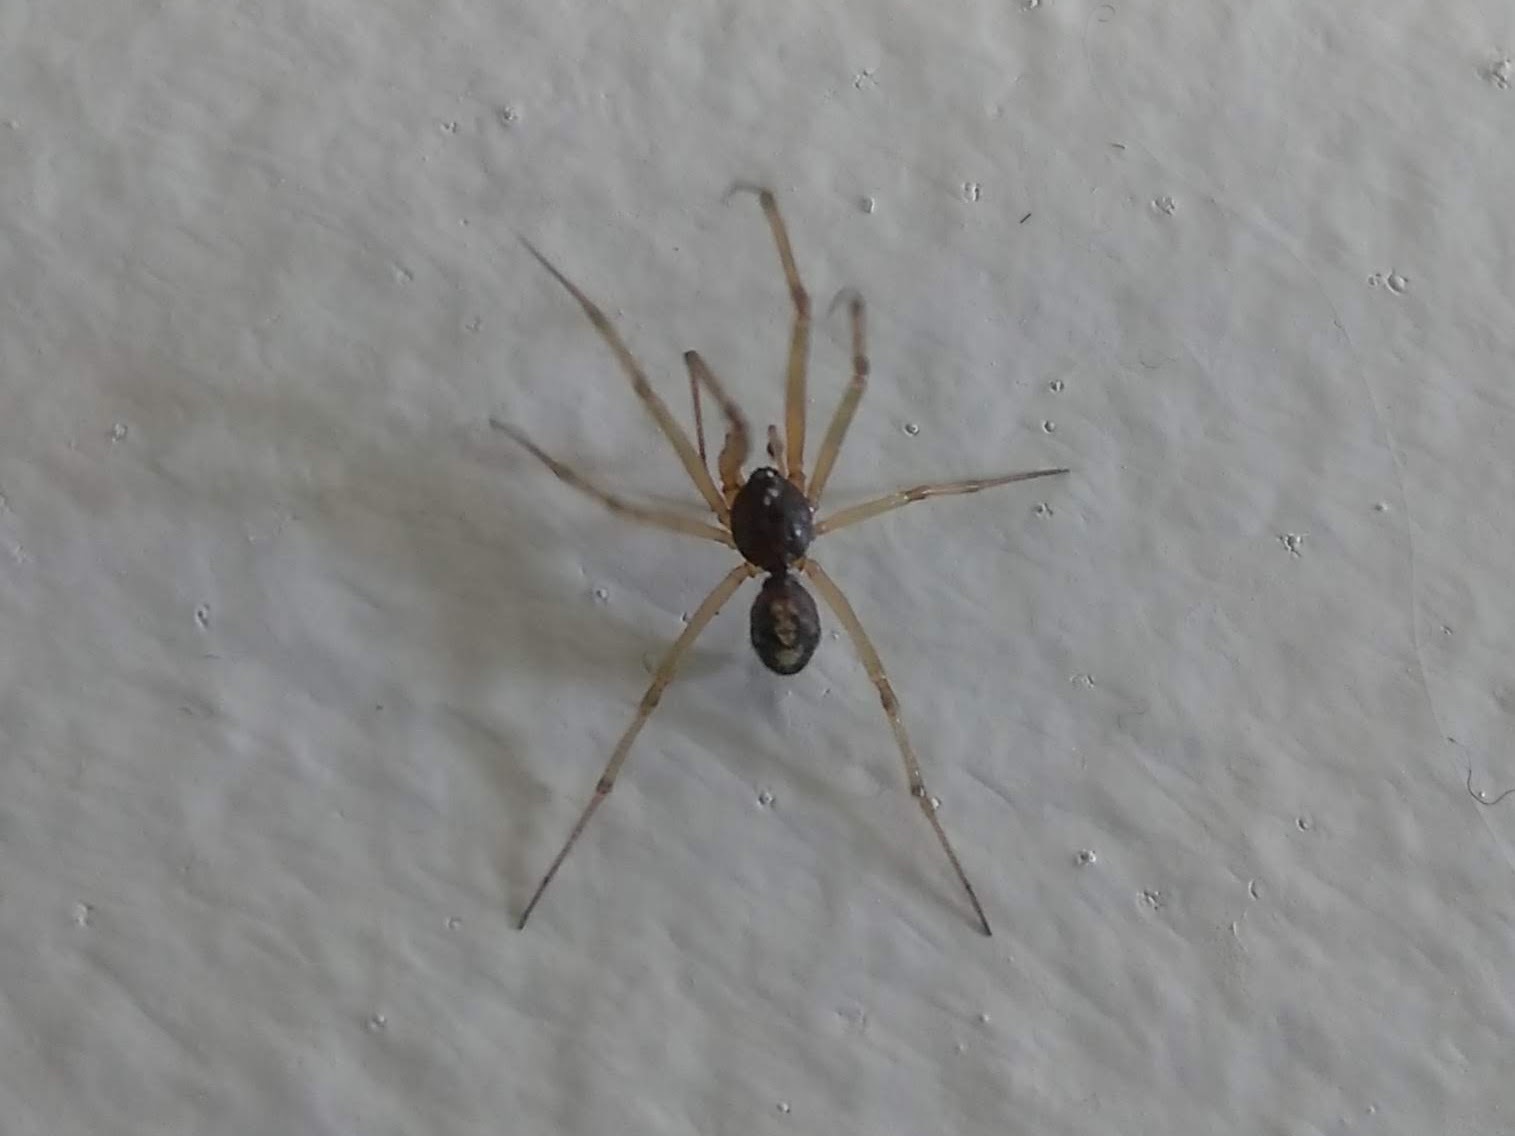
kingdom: Animalia
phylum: Arthropoda
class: Arachnida
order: Araneae
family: Theridiidae
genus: Steatoda
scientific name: Steatoda triangulosa
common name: Triangulate bud spider
